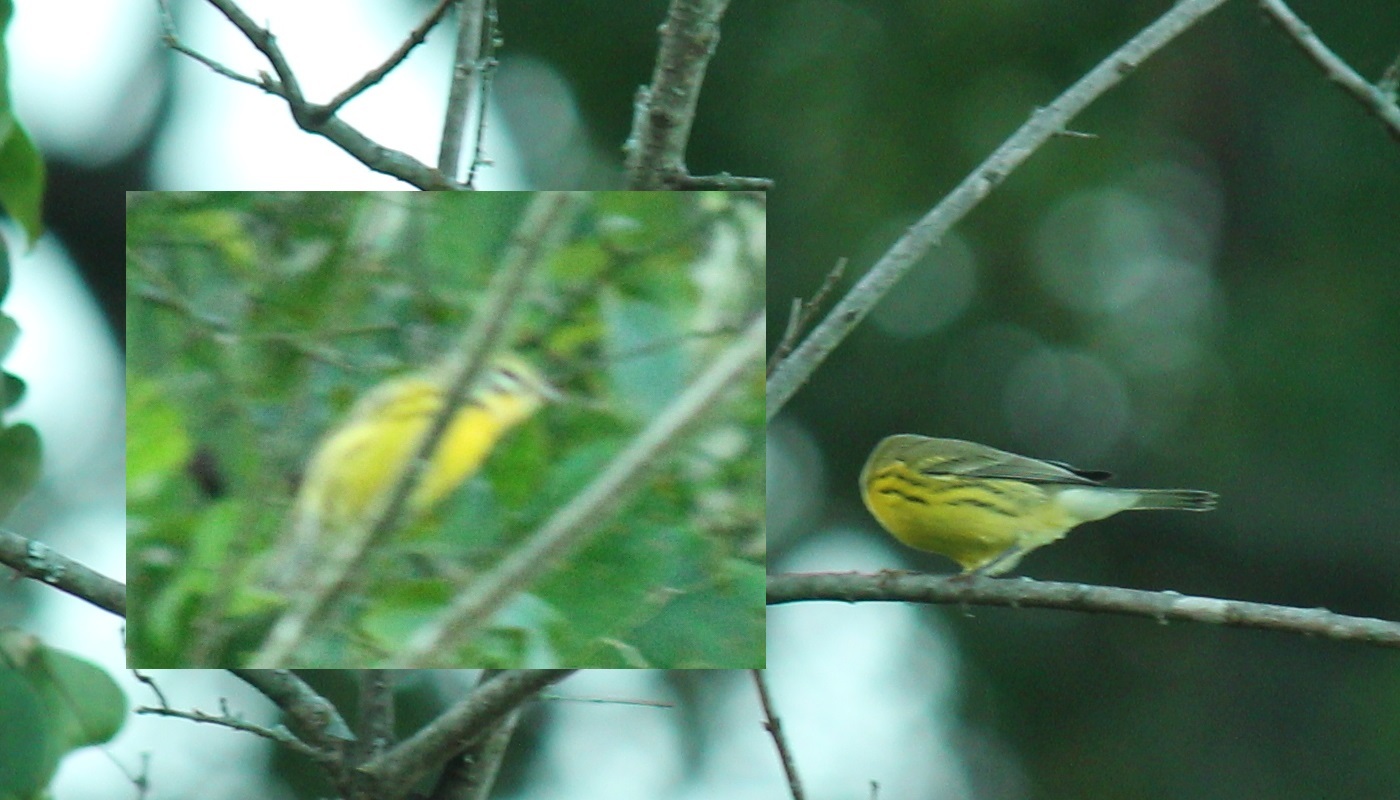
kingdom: Animalia
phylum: Chordata
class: Aves
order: Passeriformes
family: Parulidae
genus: Setophaga
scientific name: Setophaga discolor
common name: Prairie warbler
